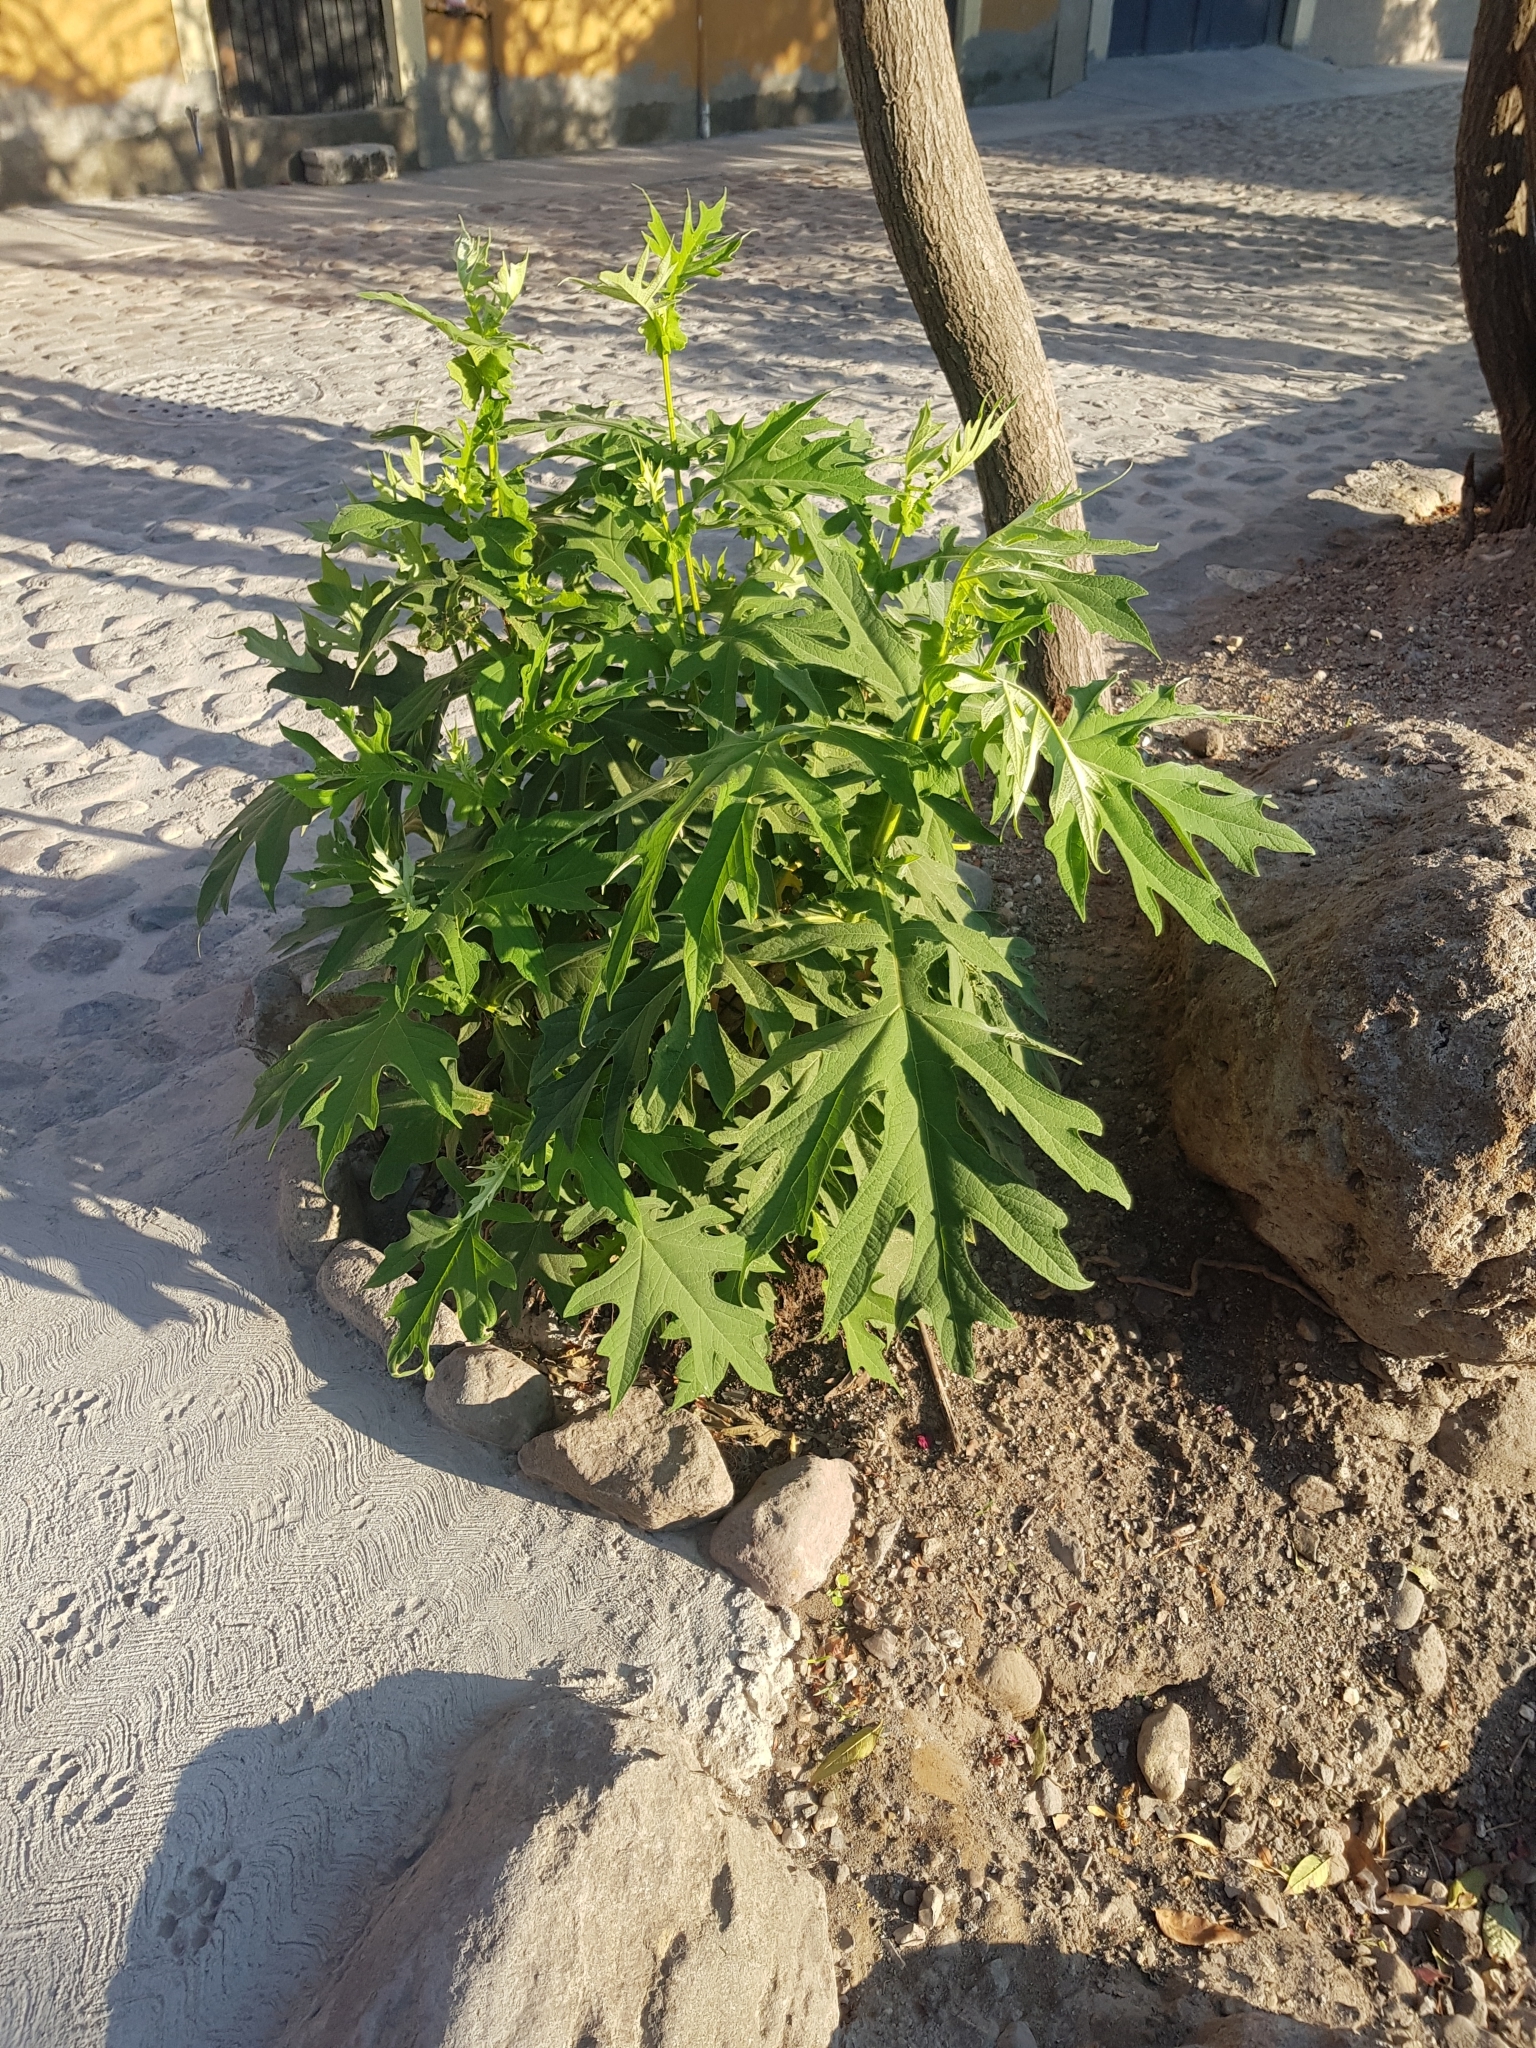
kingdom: Plantae
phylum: Tracheophyta
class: Magnoliopsida
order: Brassicales
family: Caricaceae
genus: Carica
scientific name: Carica papaya
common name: Papaya
